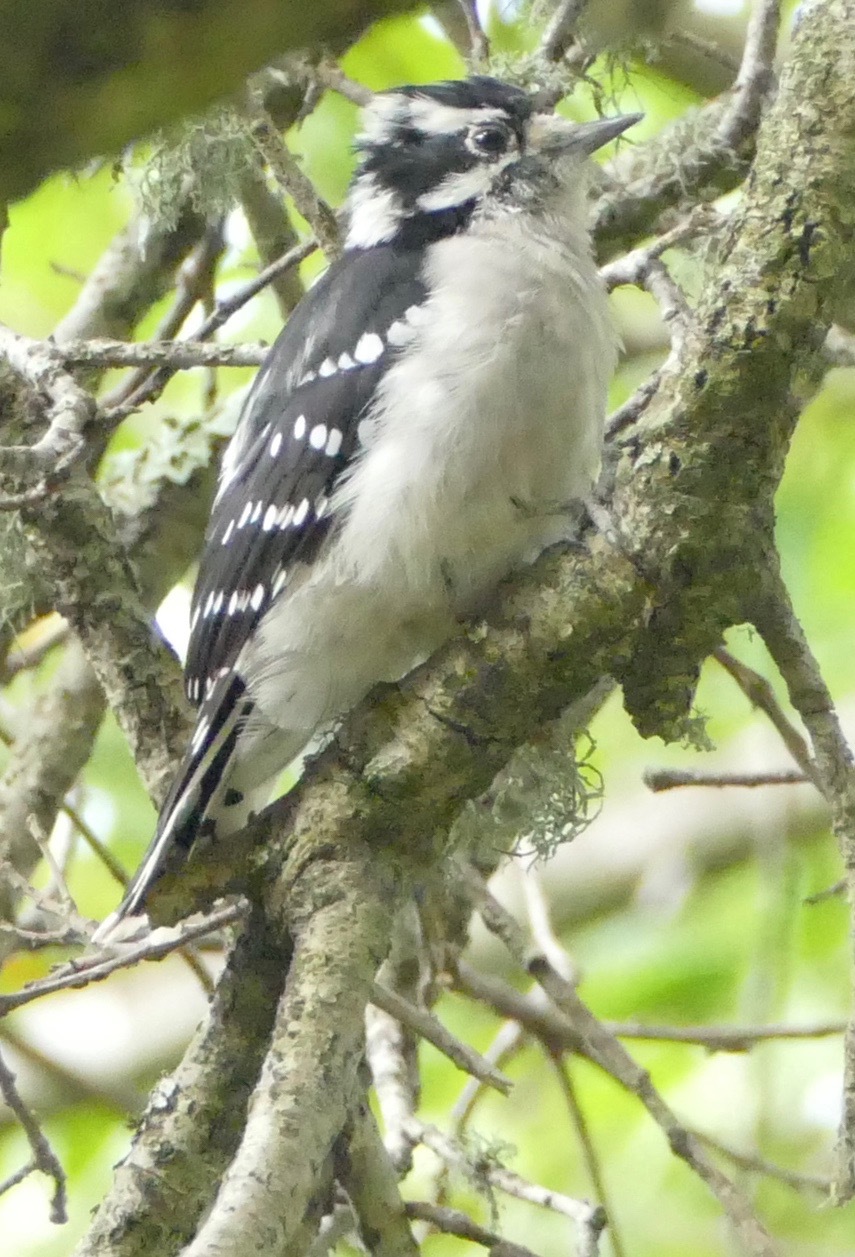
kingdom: Animalia
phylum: Chordata
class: Aves
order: Piciformes
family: Picidae
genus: Dryobates
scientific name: Dryobates pubescens
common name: Downy woodpecker
